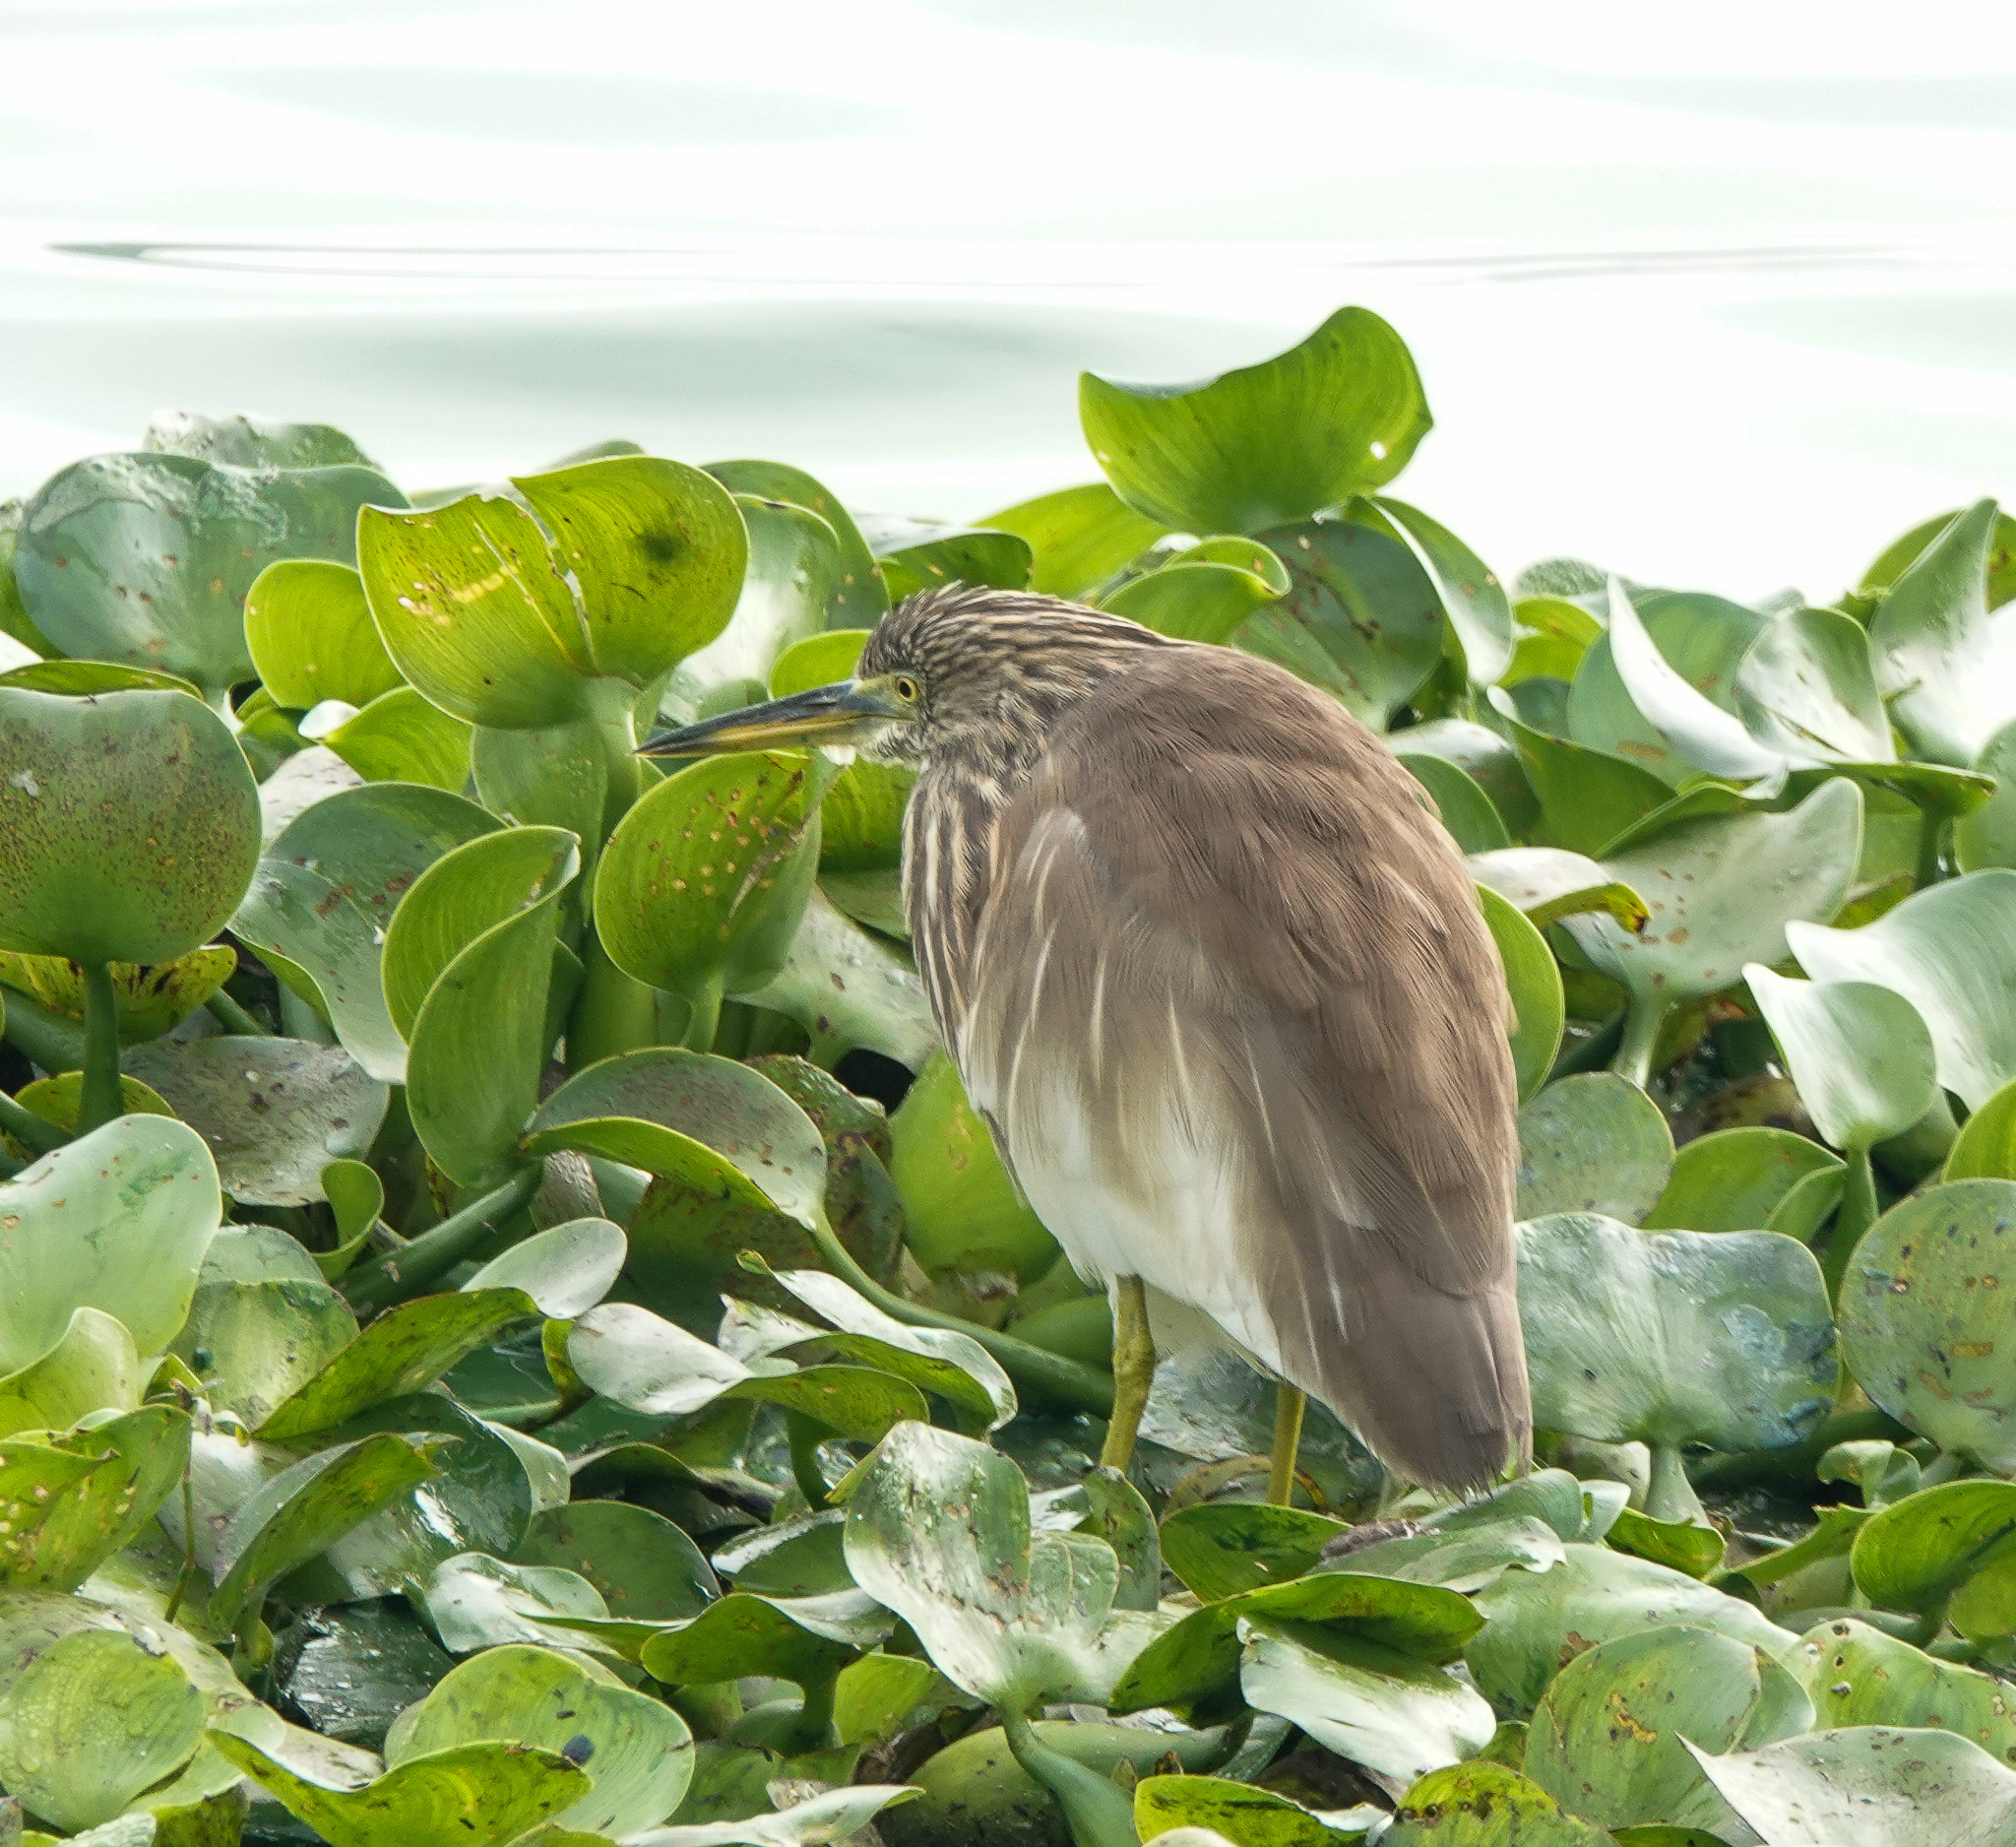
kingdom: Animalia
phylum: Chordata
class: Aves
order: Pelecaniformes
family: Ardeidae
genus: Ardeola
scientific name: Ardeola grayii
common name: Indian pond heron
